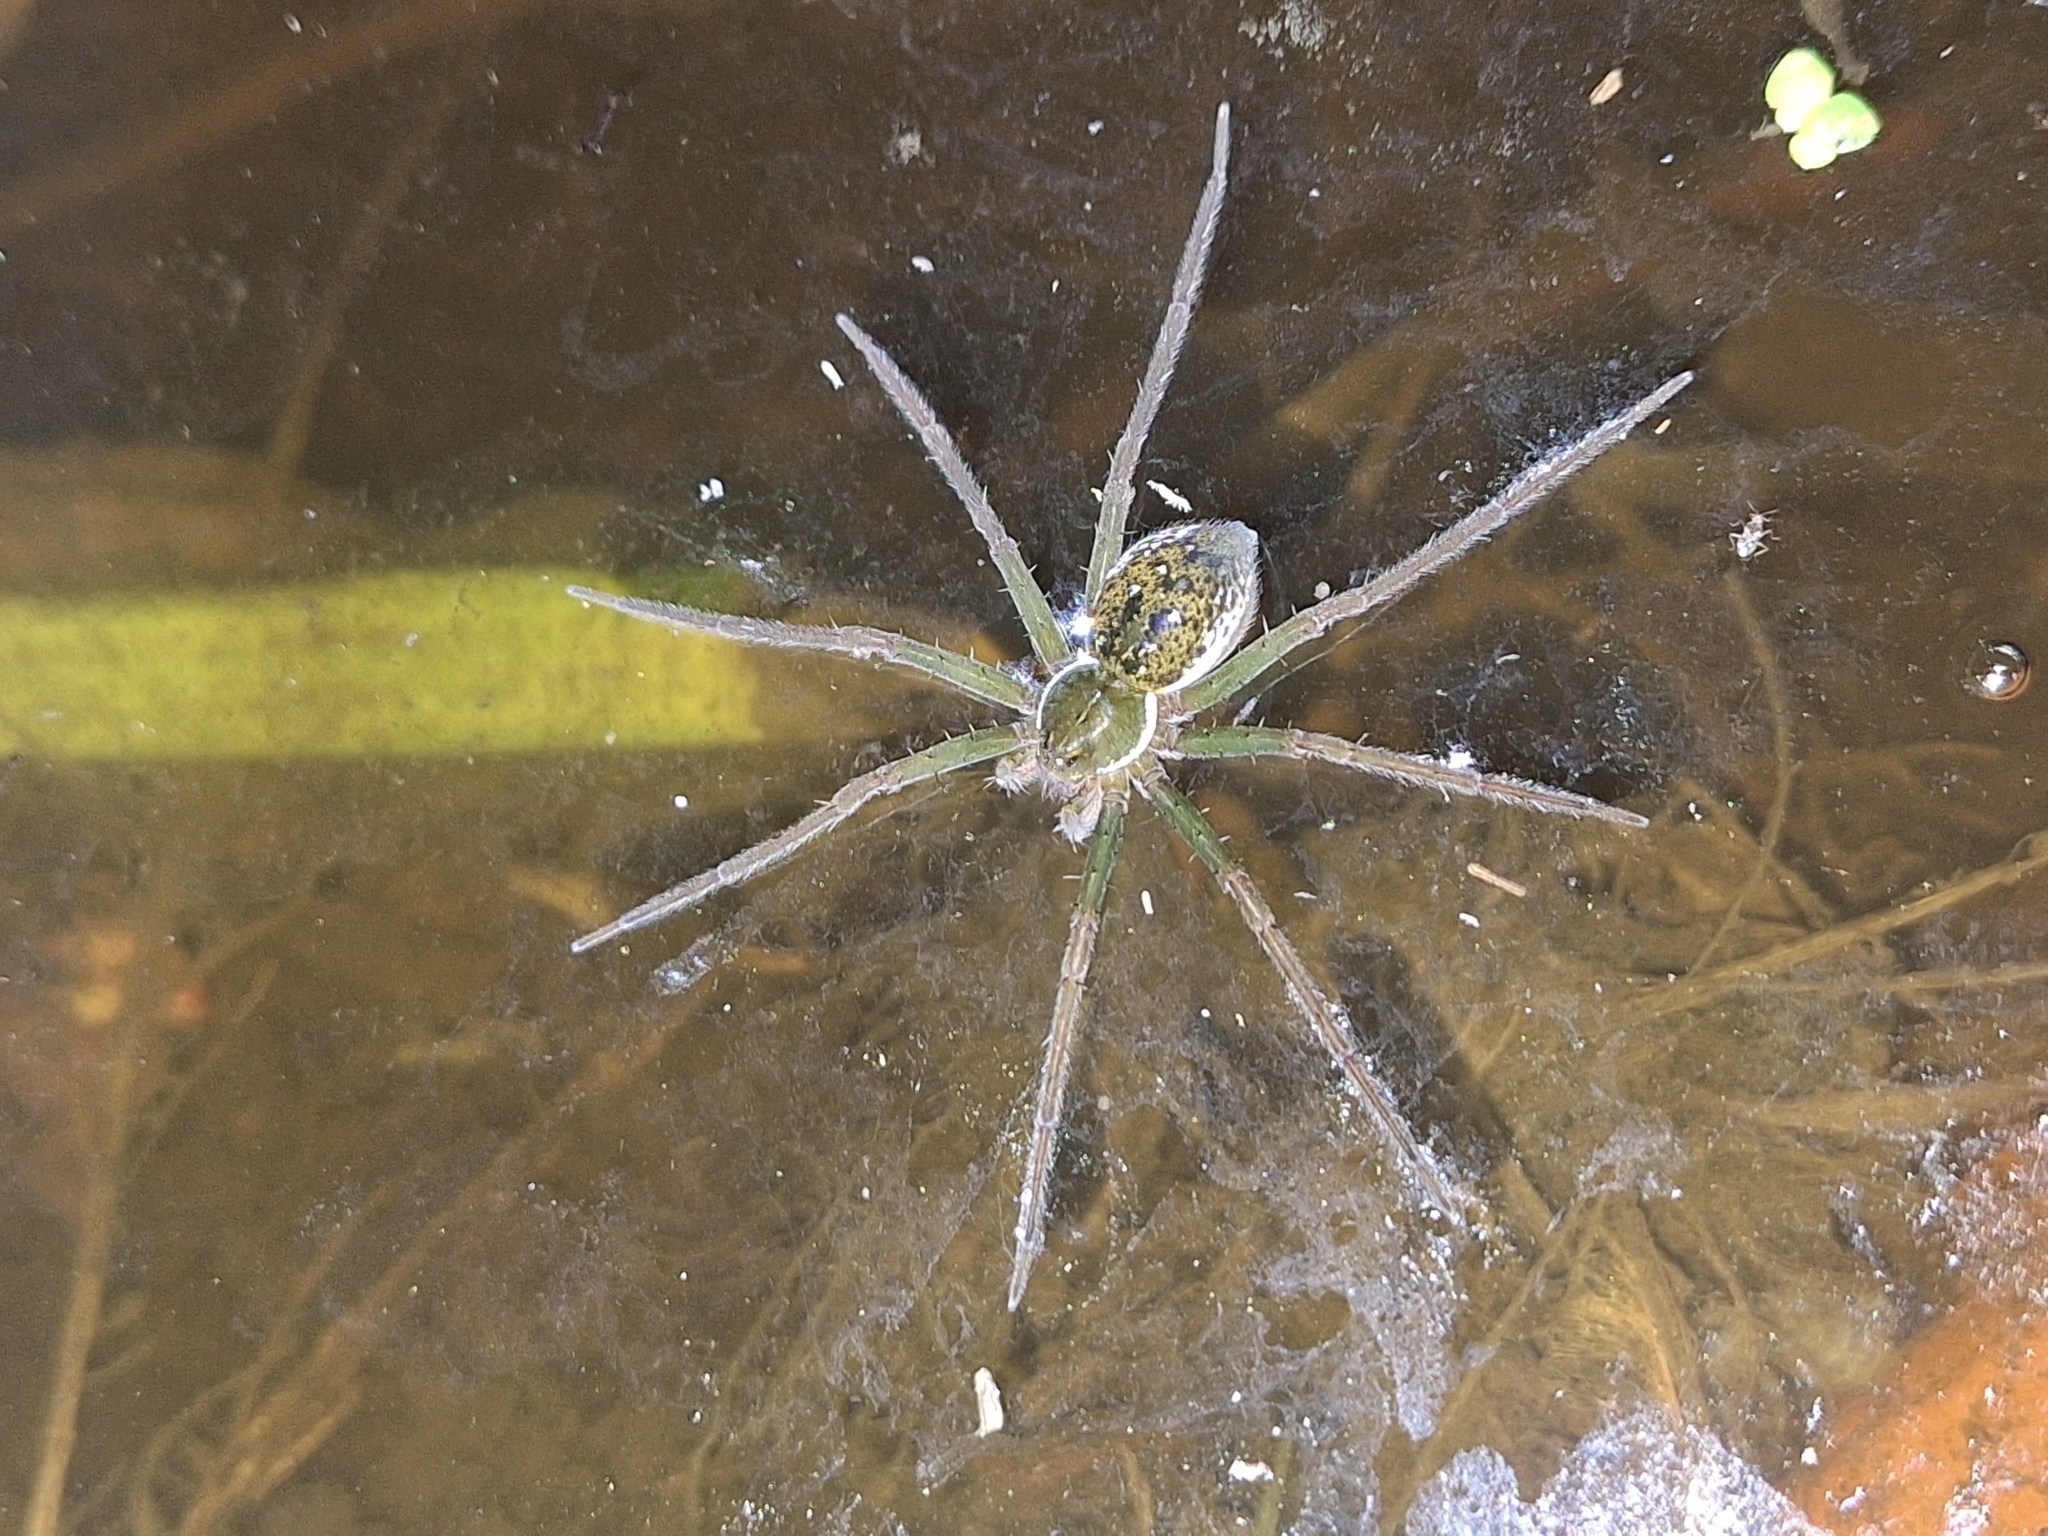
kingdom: Animalia
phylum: Arthropoda
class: Arachnida
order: Araneae
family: Pisauridae
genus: Thaumasia
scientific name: Thaumasia velox
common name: Nursery web spiders
